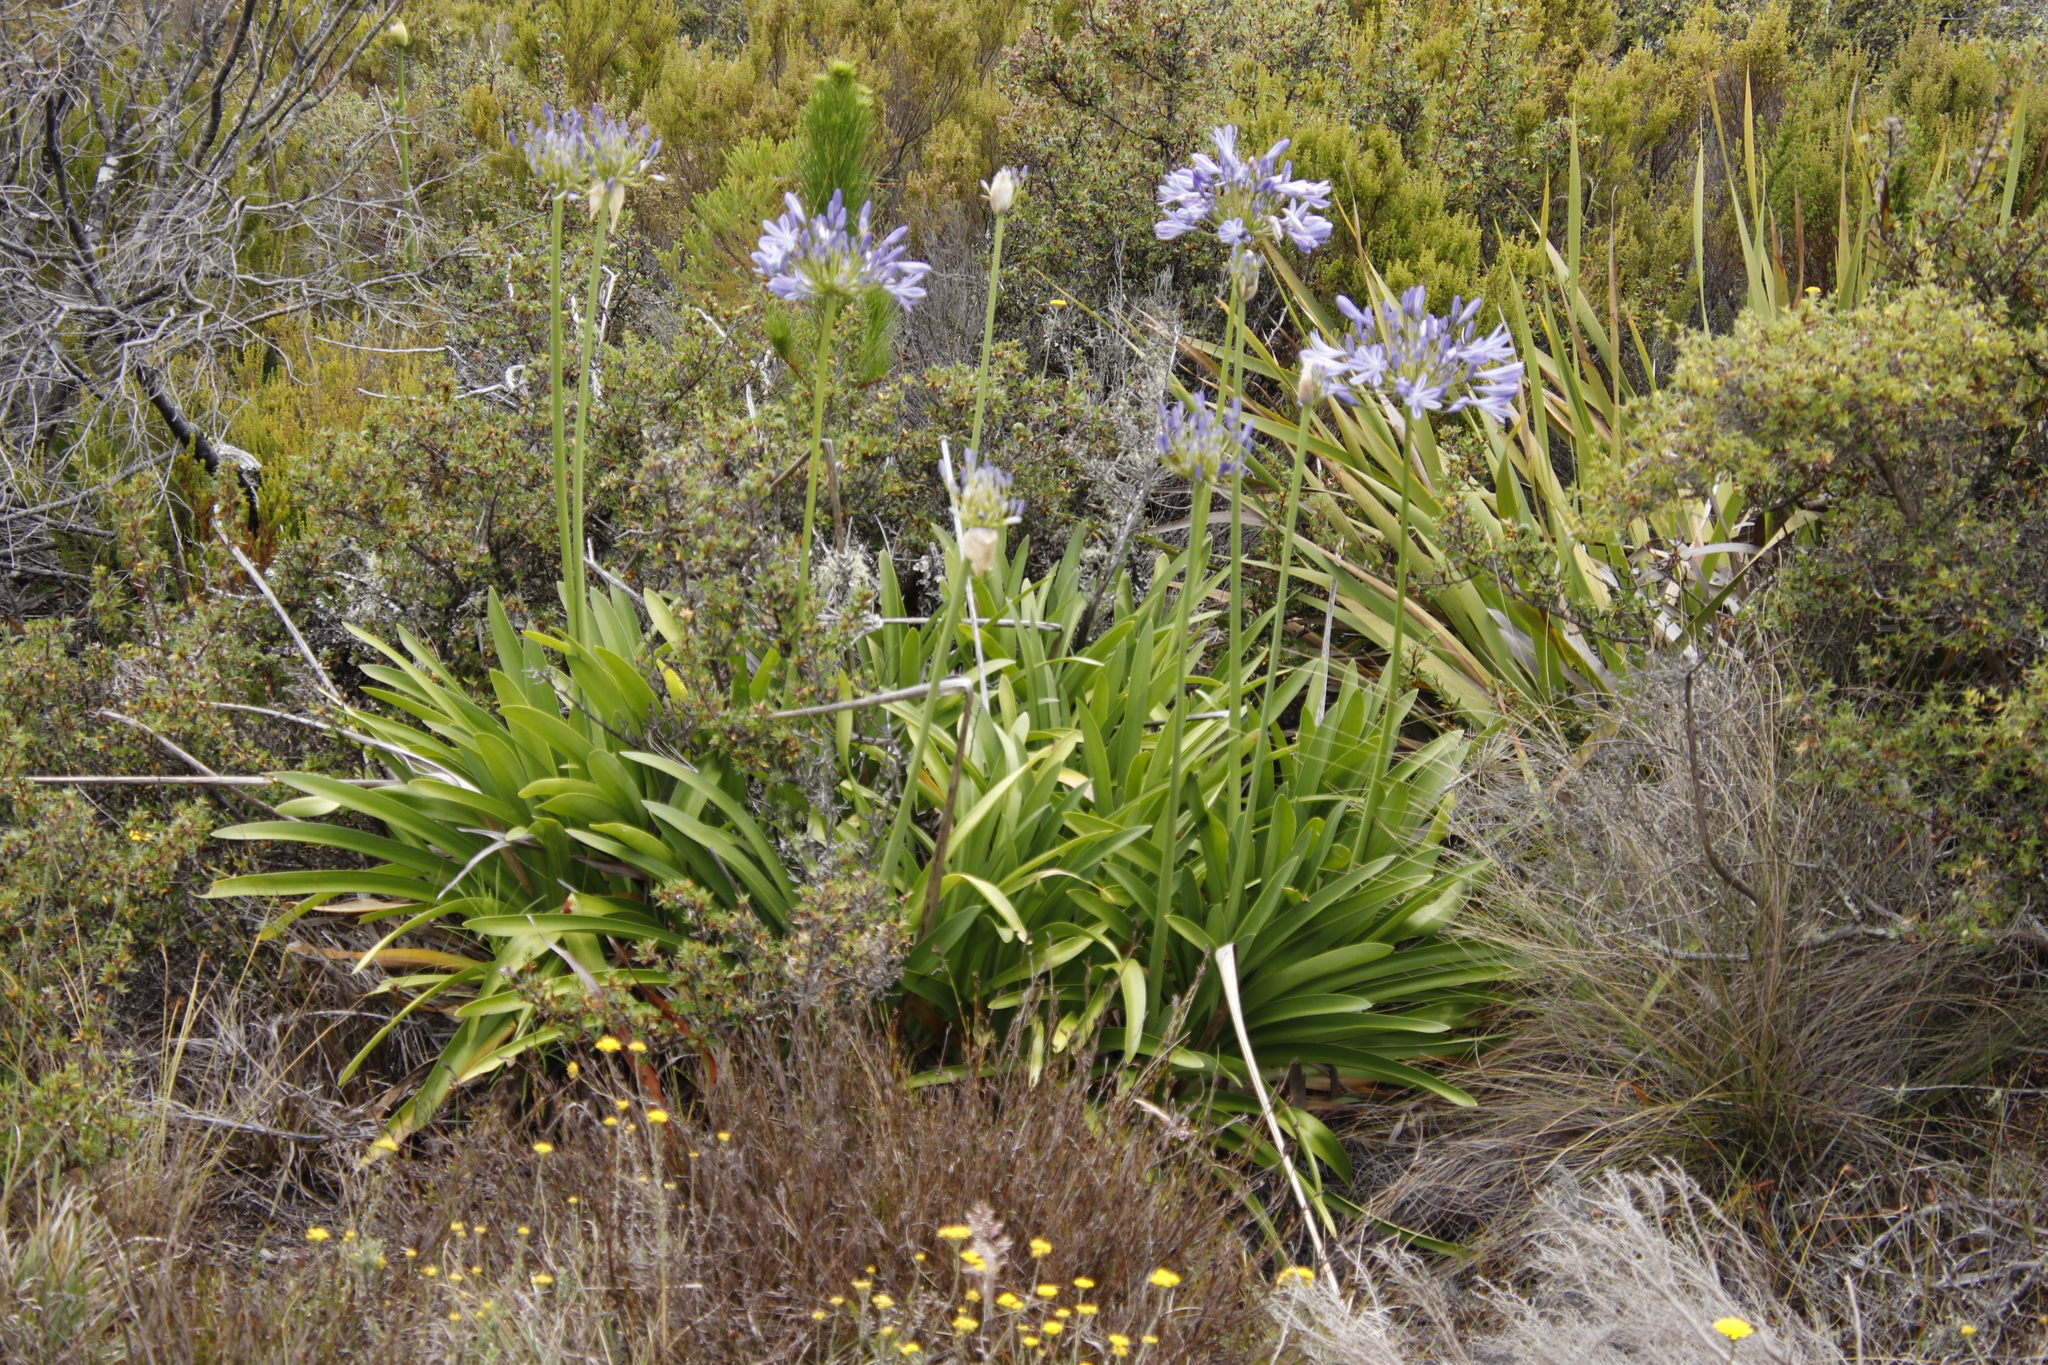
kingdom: Plantae
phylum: Tracheophyta
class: Liliopsida
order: Asparagales
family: Amaryllidaceae
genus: Agapanthus
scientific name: Agapanthus praecox
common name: African-lily
